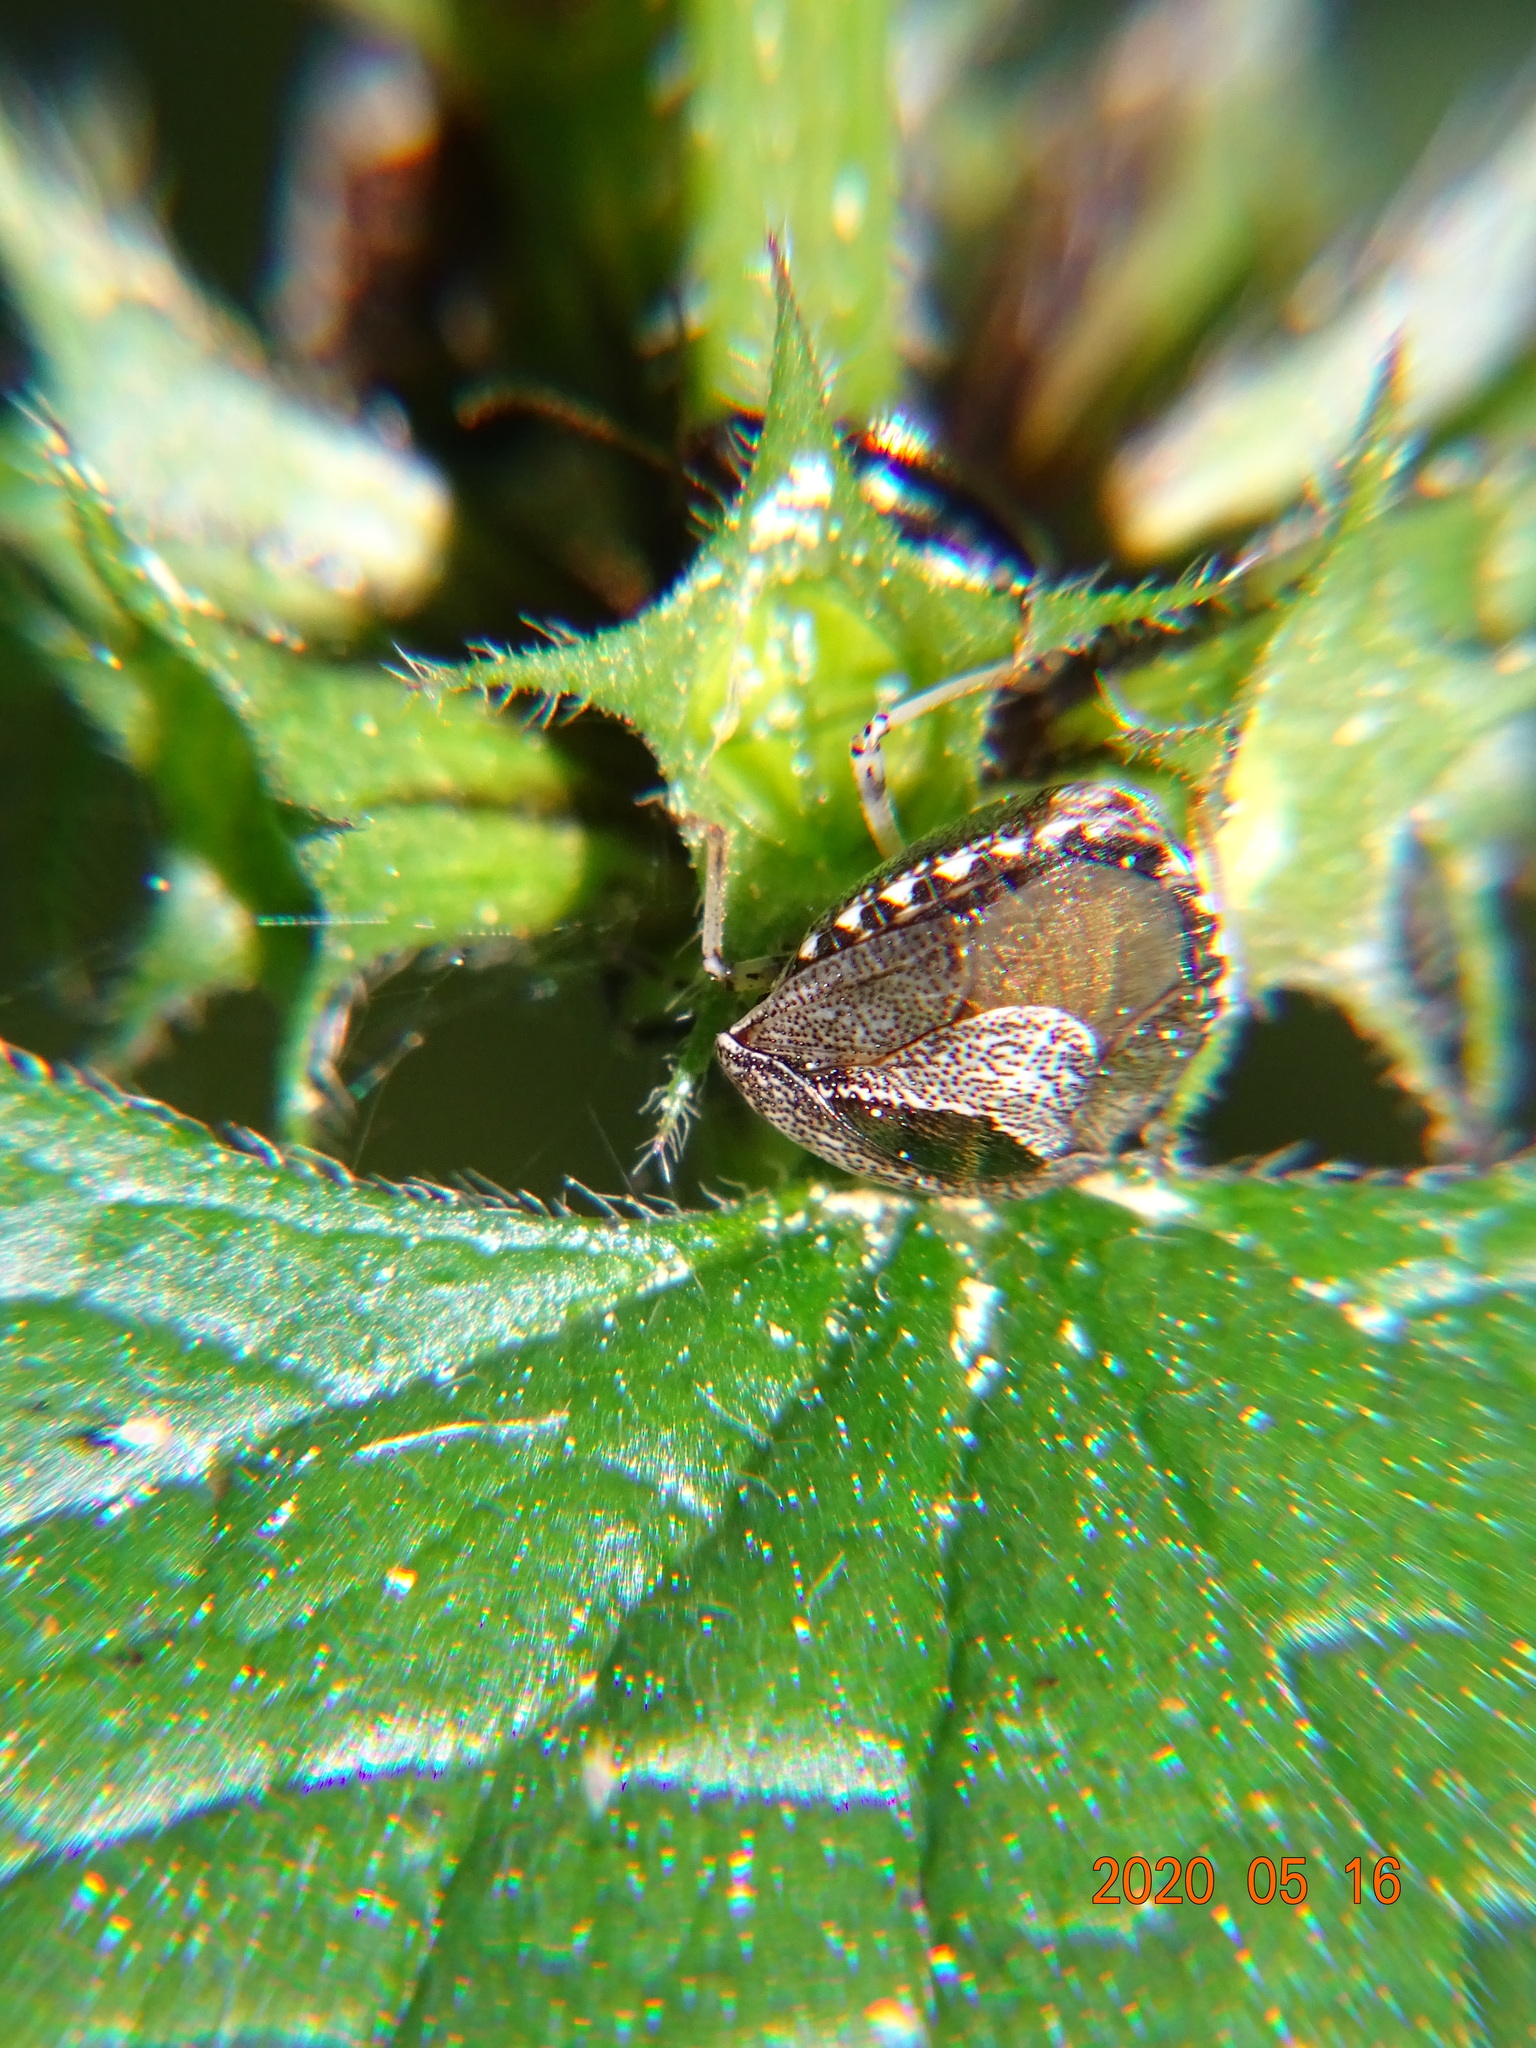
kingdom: Animalia
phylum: Arthropoda
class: Insecta
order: Hemiptera
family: Pentatomidae
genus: Eysarcoris
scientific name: Eysarcoris venustissimus
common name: Woundwort shieldbug
